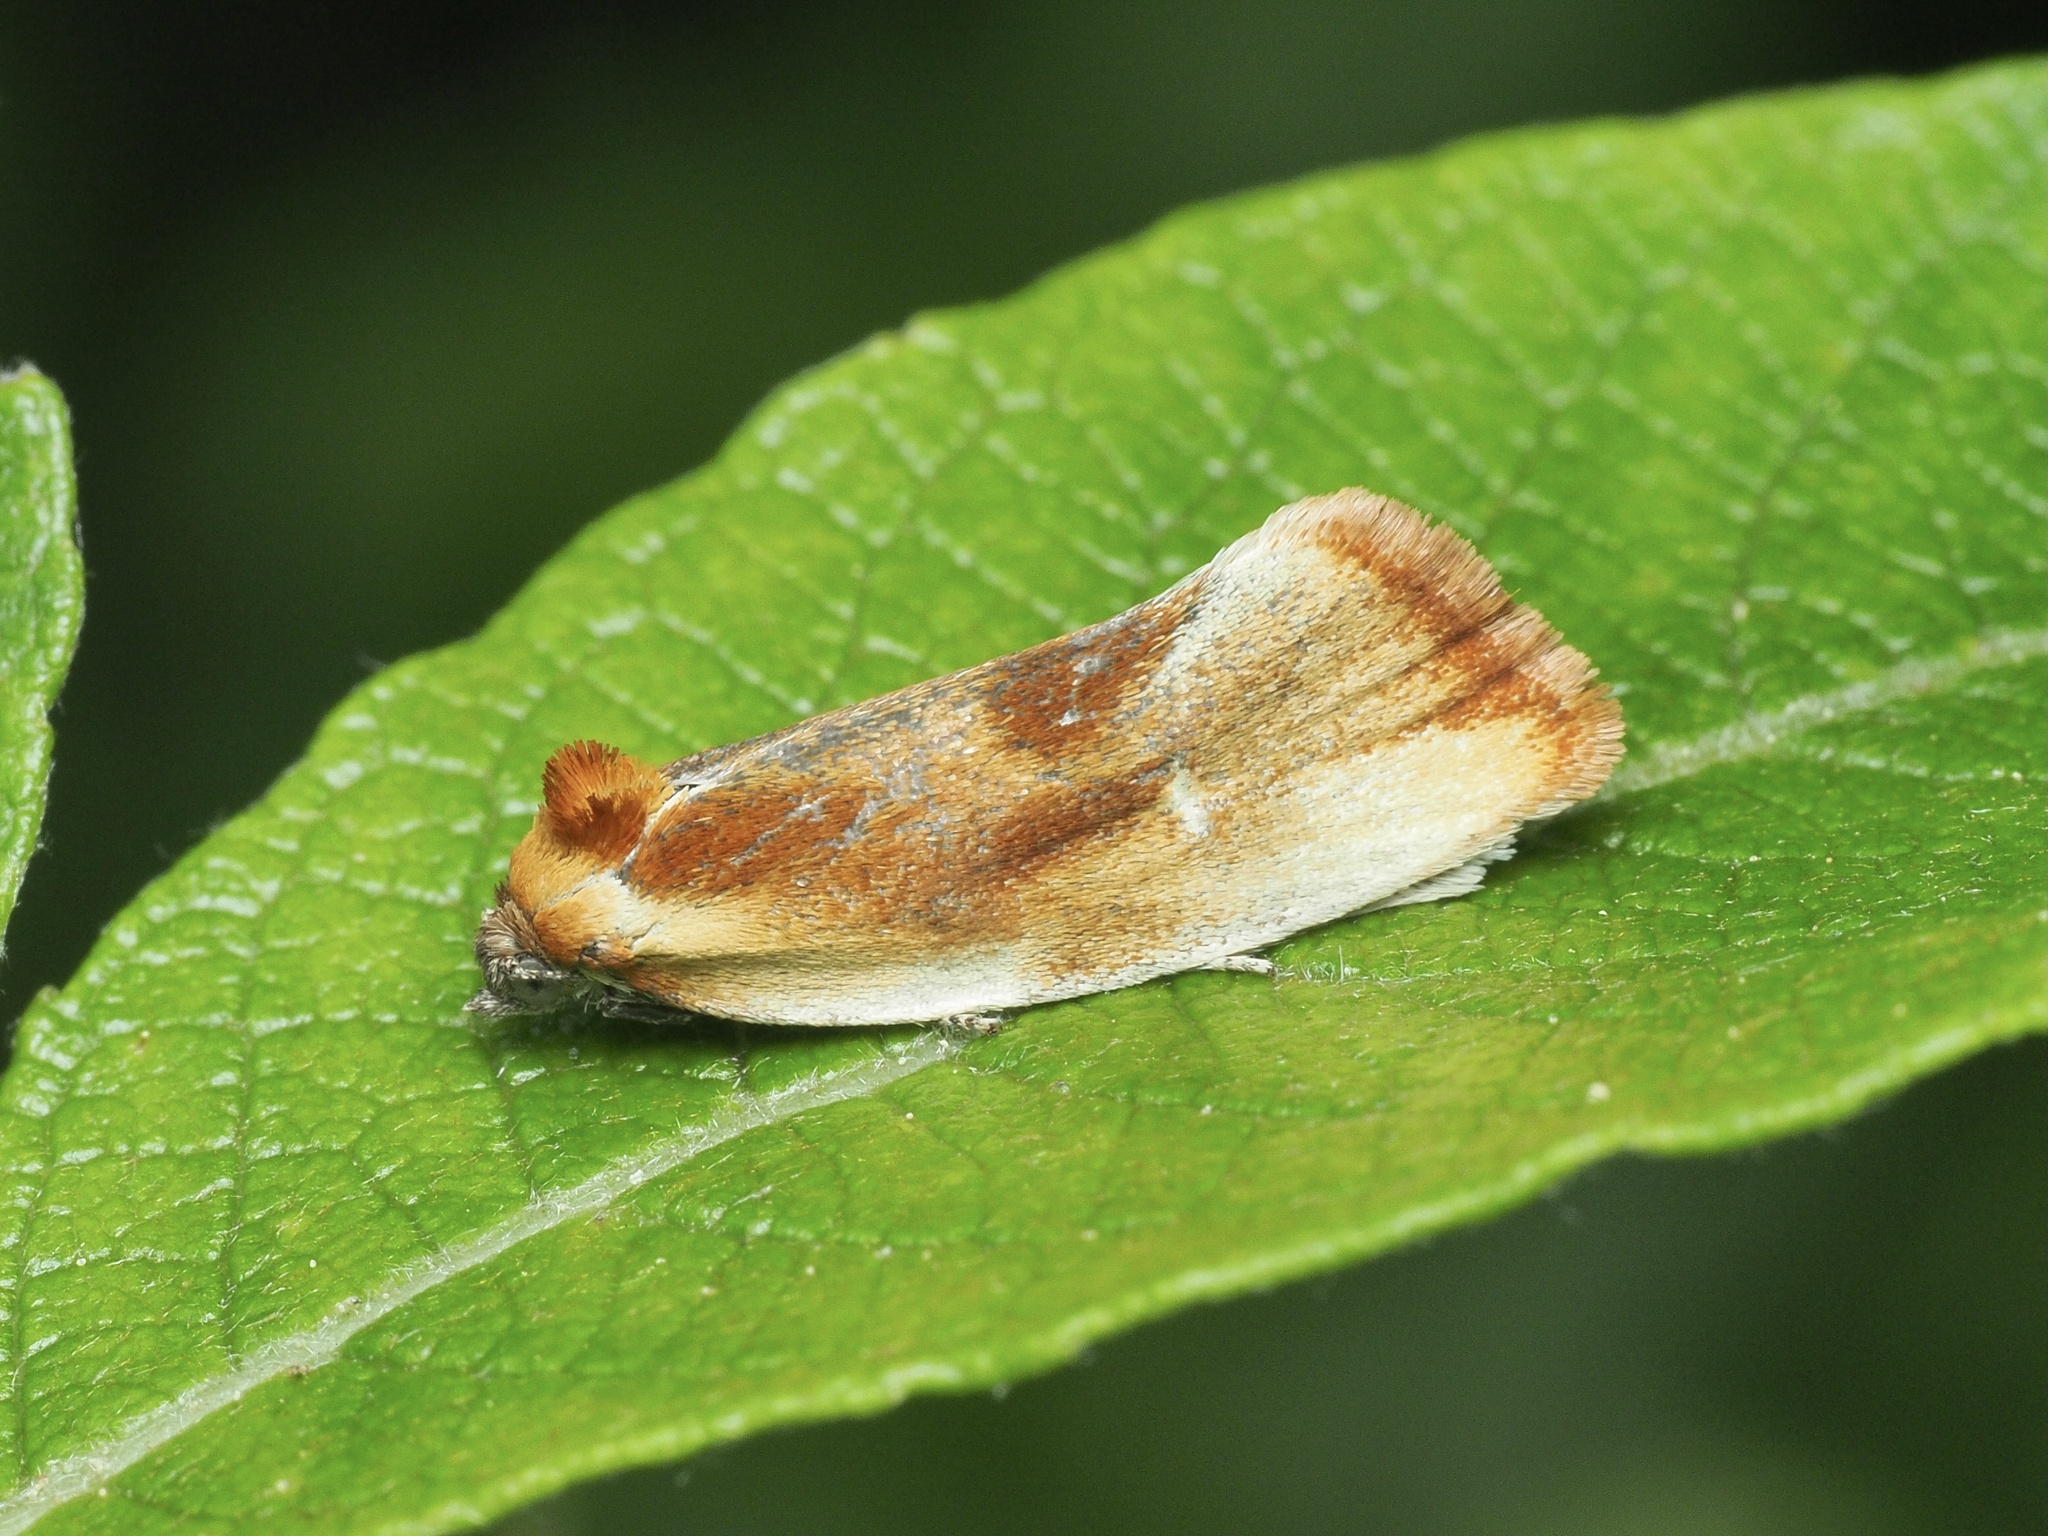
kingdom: Animalia
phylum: Arthropoda
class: Insecta
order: Lepidoptera
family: Tortricidae
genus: Eulia
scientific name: Eulia ministrana
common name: Brassy twist
